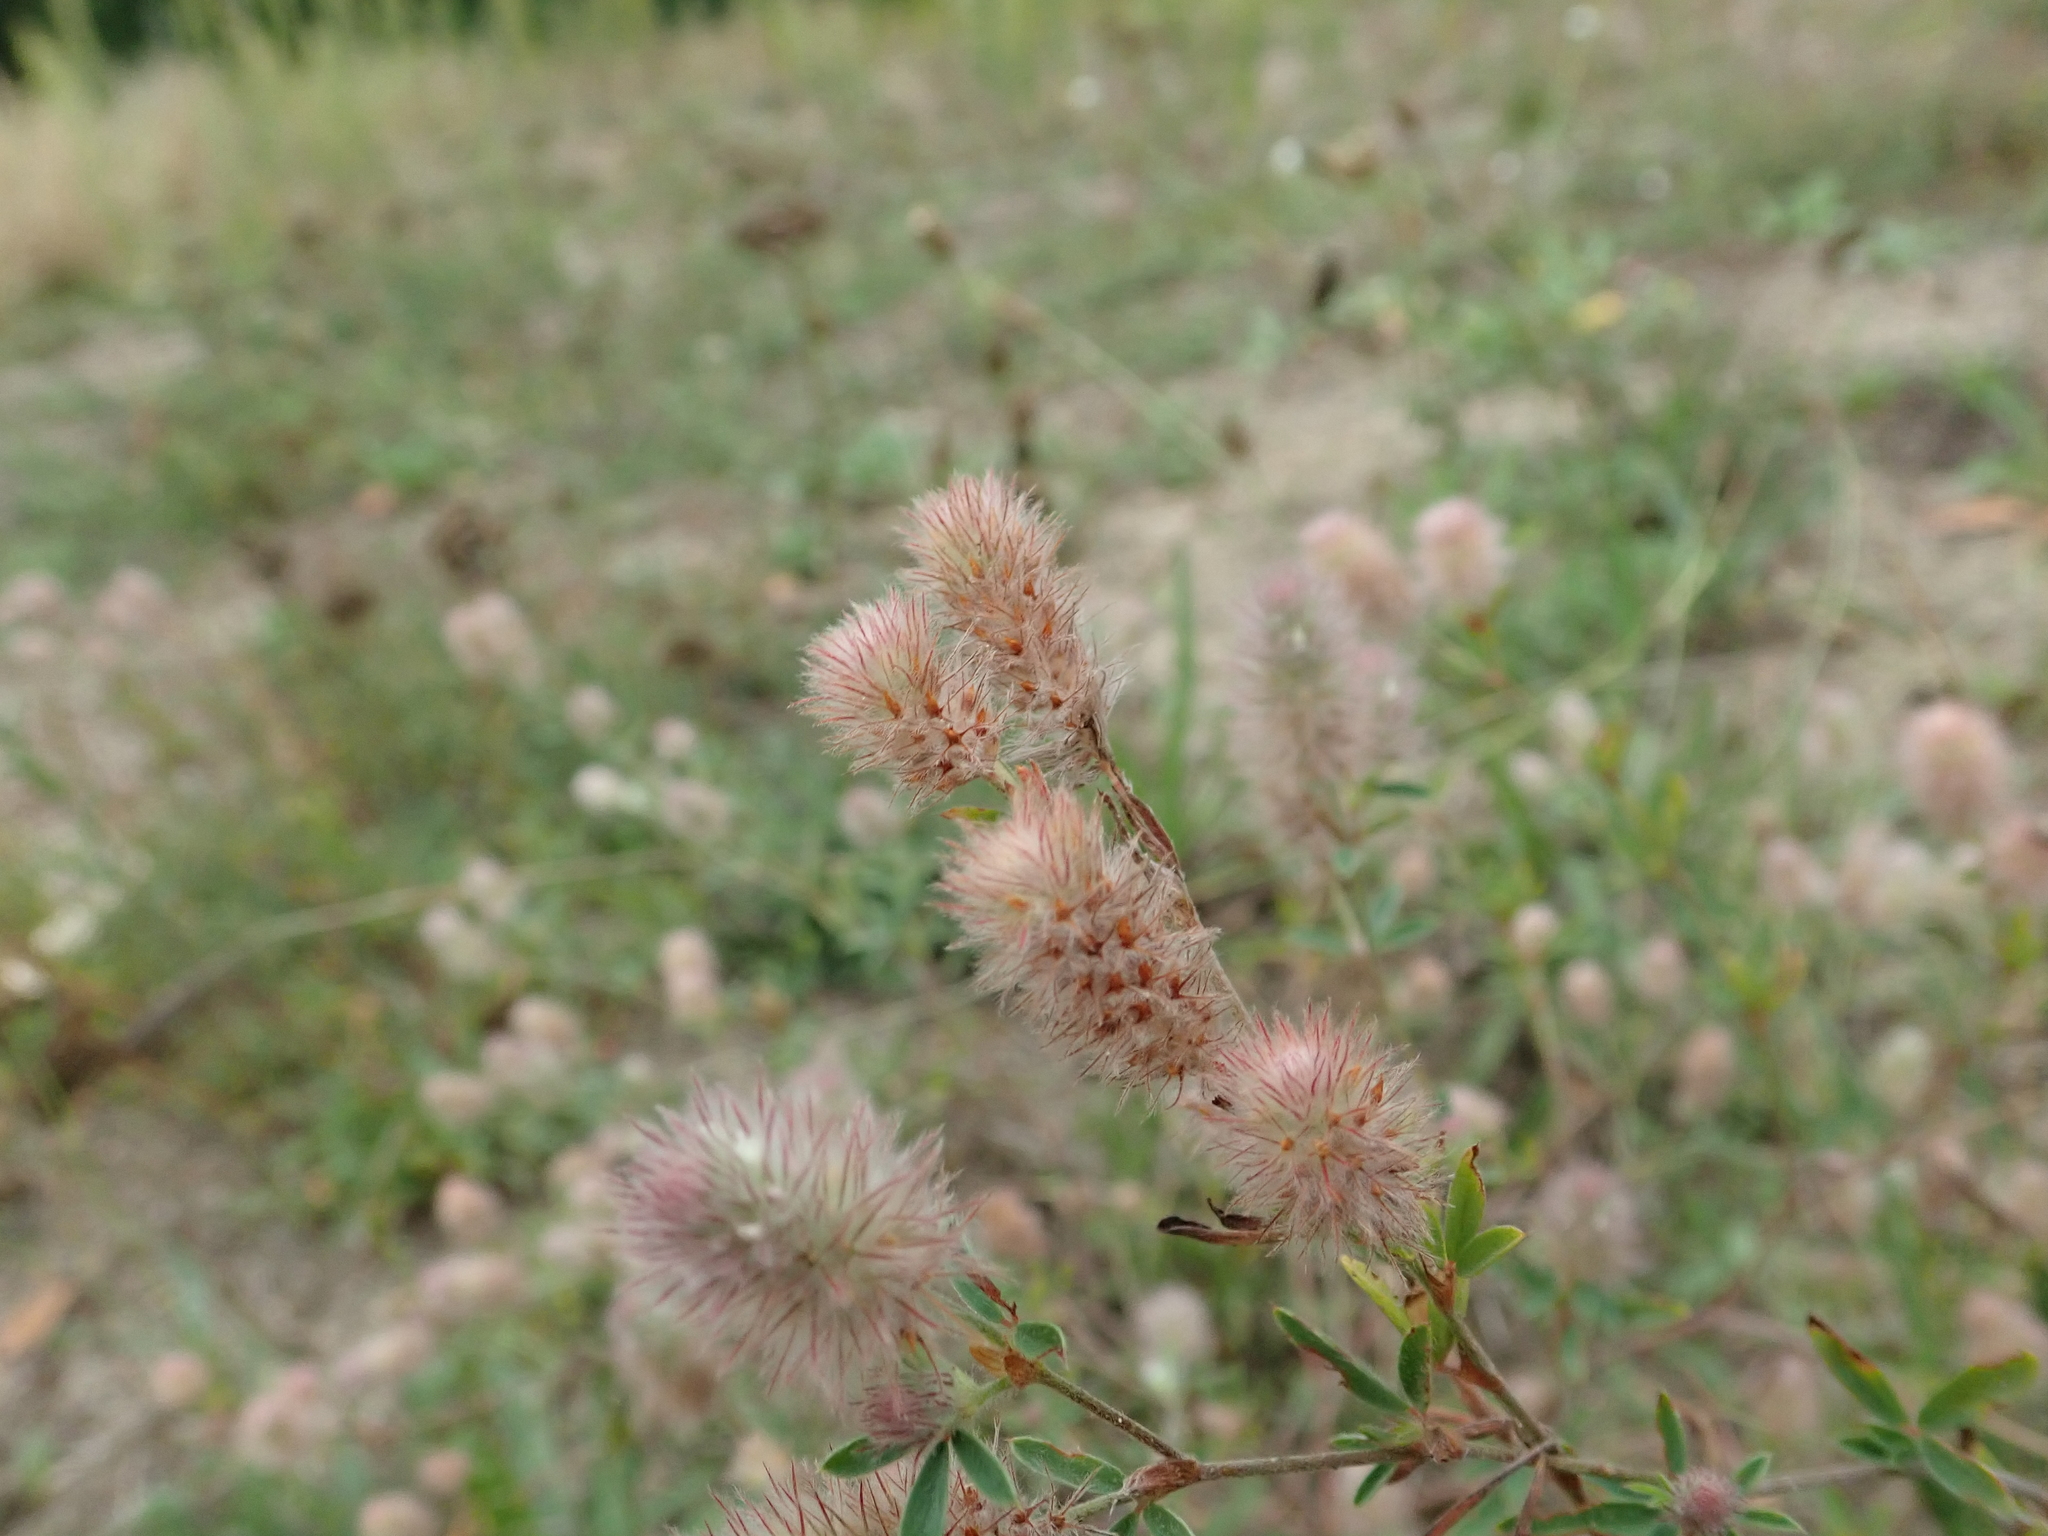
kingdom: Plantae
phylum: Tracheophyta
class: Magnoliopsida
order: Fabales
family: Fabaceae
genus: Trifolium
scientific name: Trifolium arvense
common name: Hare's-foot clover
